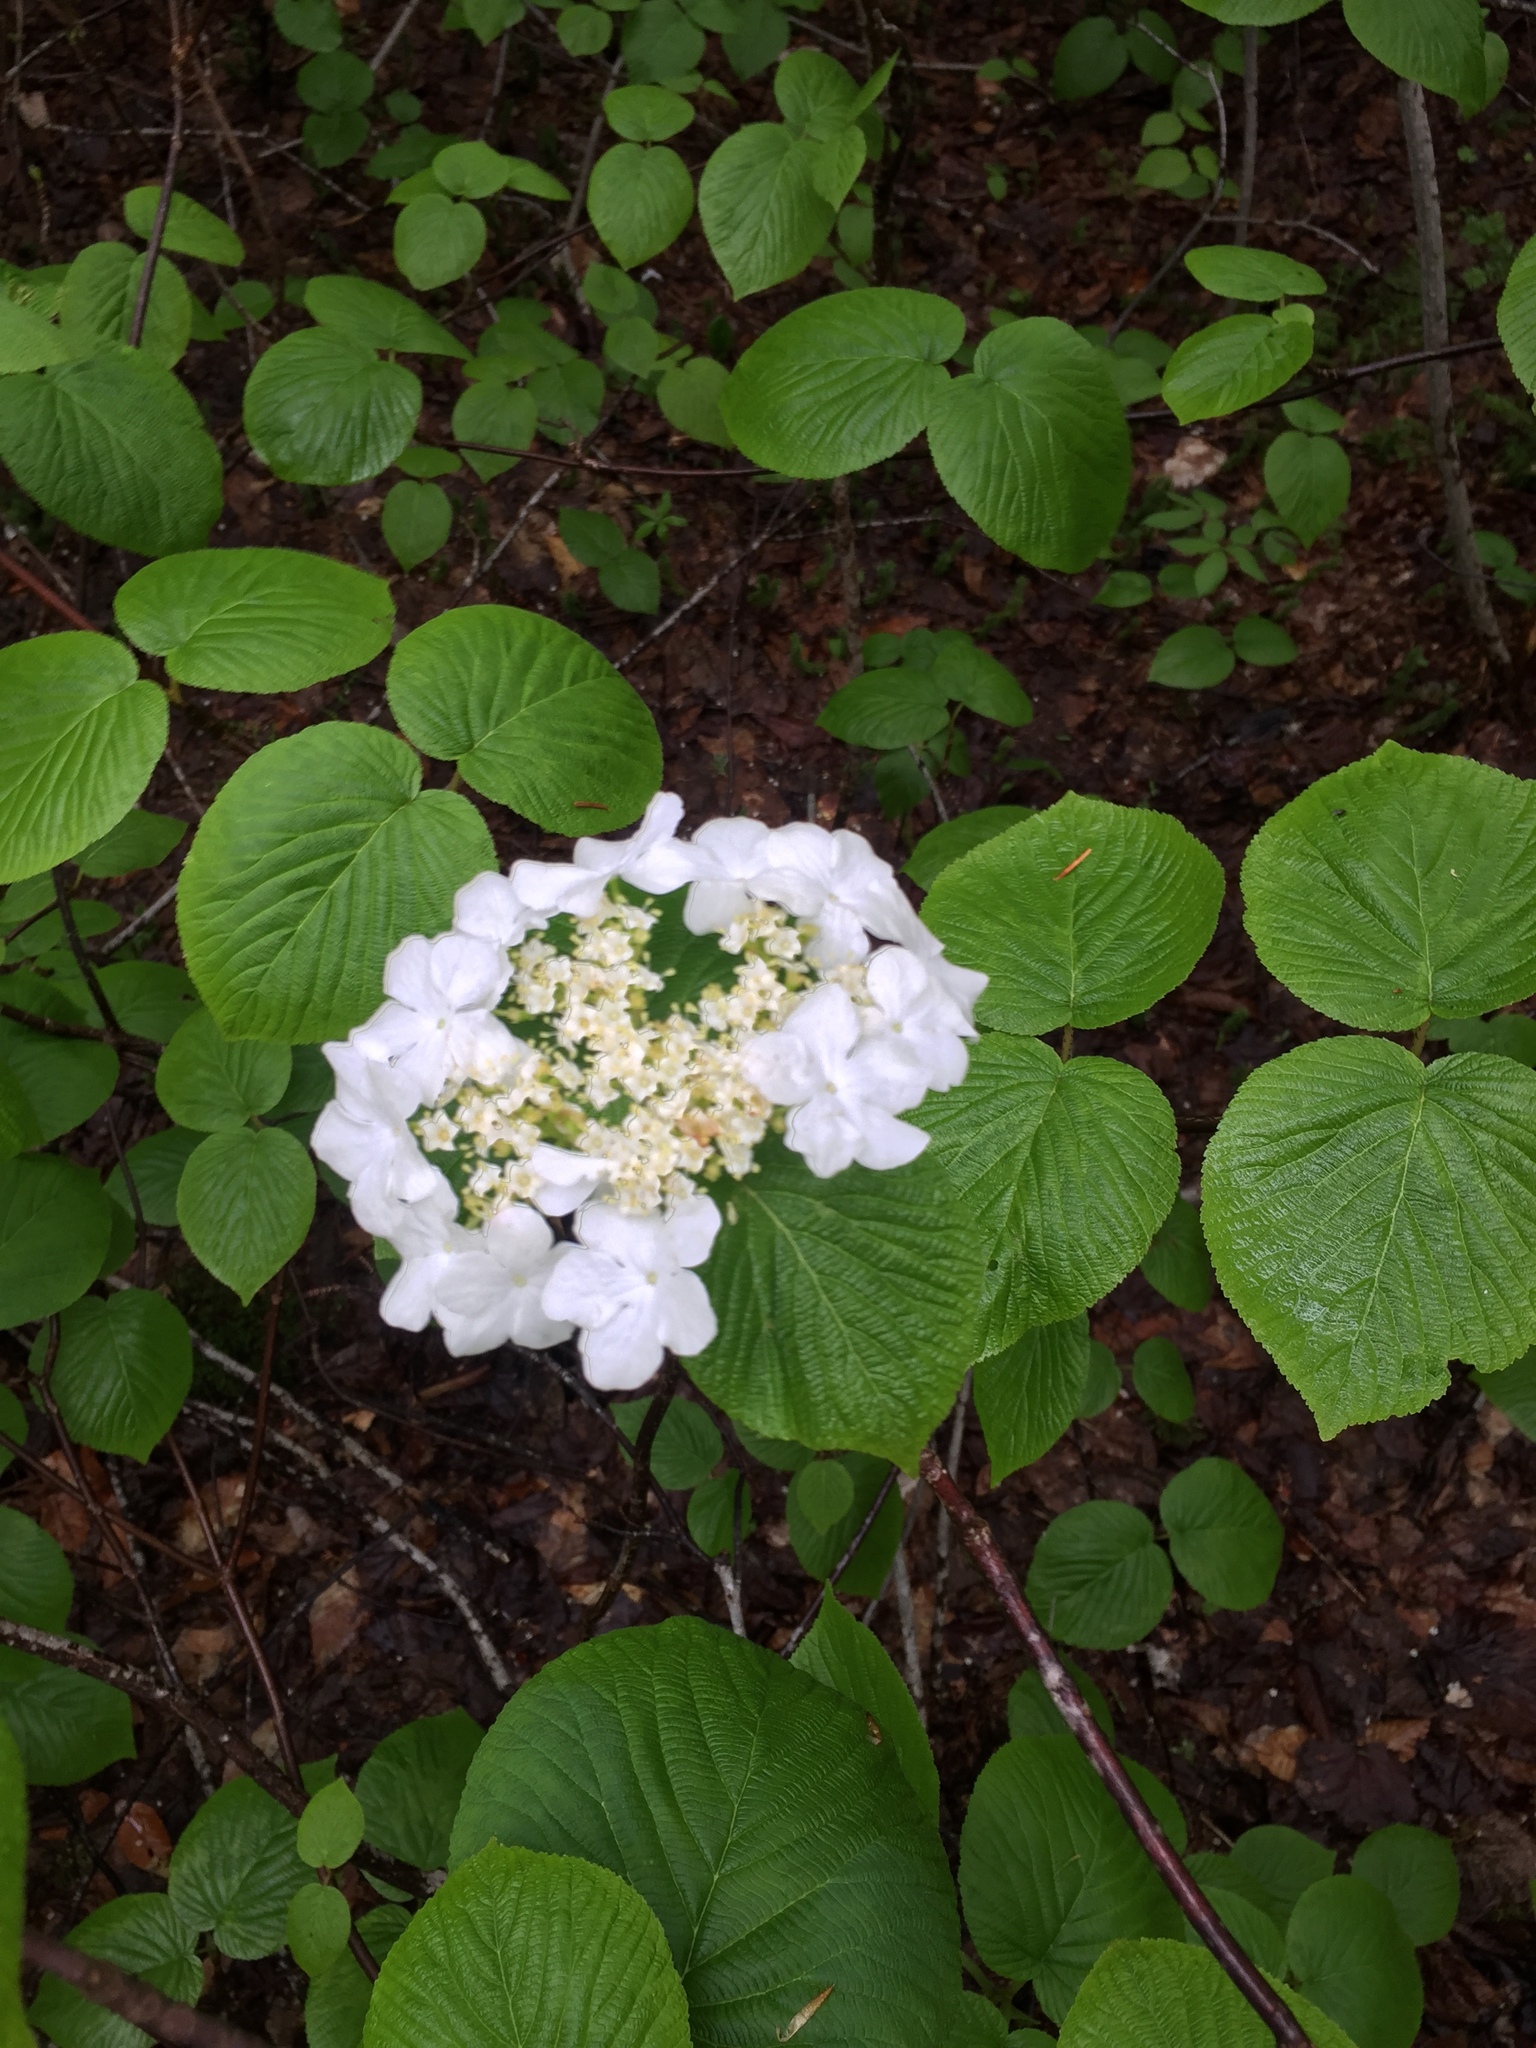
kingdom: Plantae
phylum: Tracheophyta
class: Magnoliopsida
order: Dipsacales
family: Viburnaceae
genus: Viburnum
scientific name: Viburnum lantanoides
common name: Hobblebush
